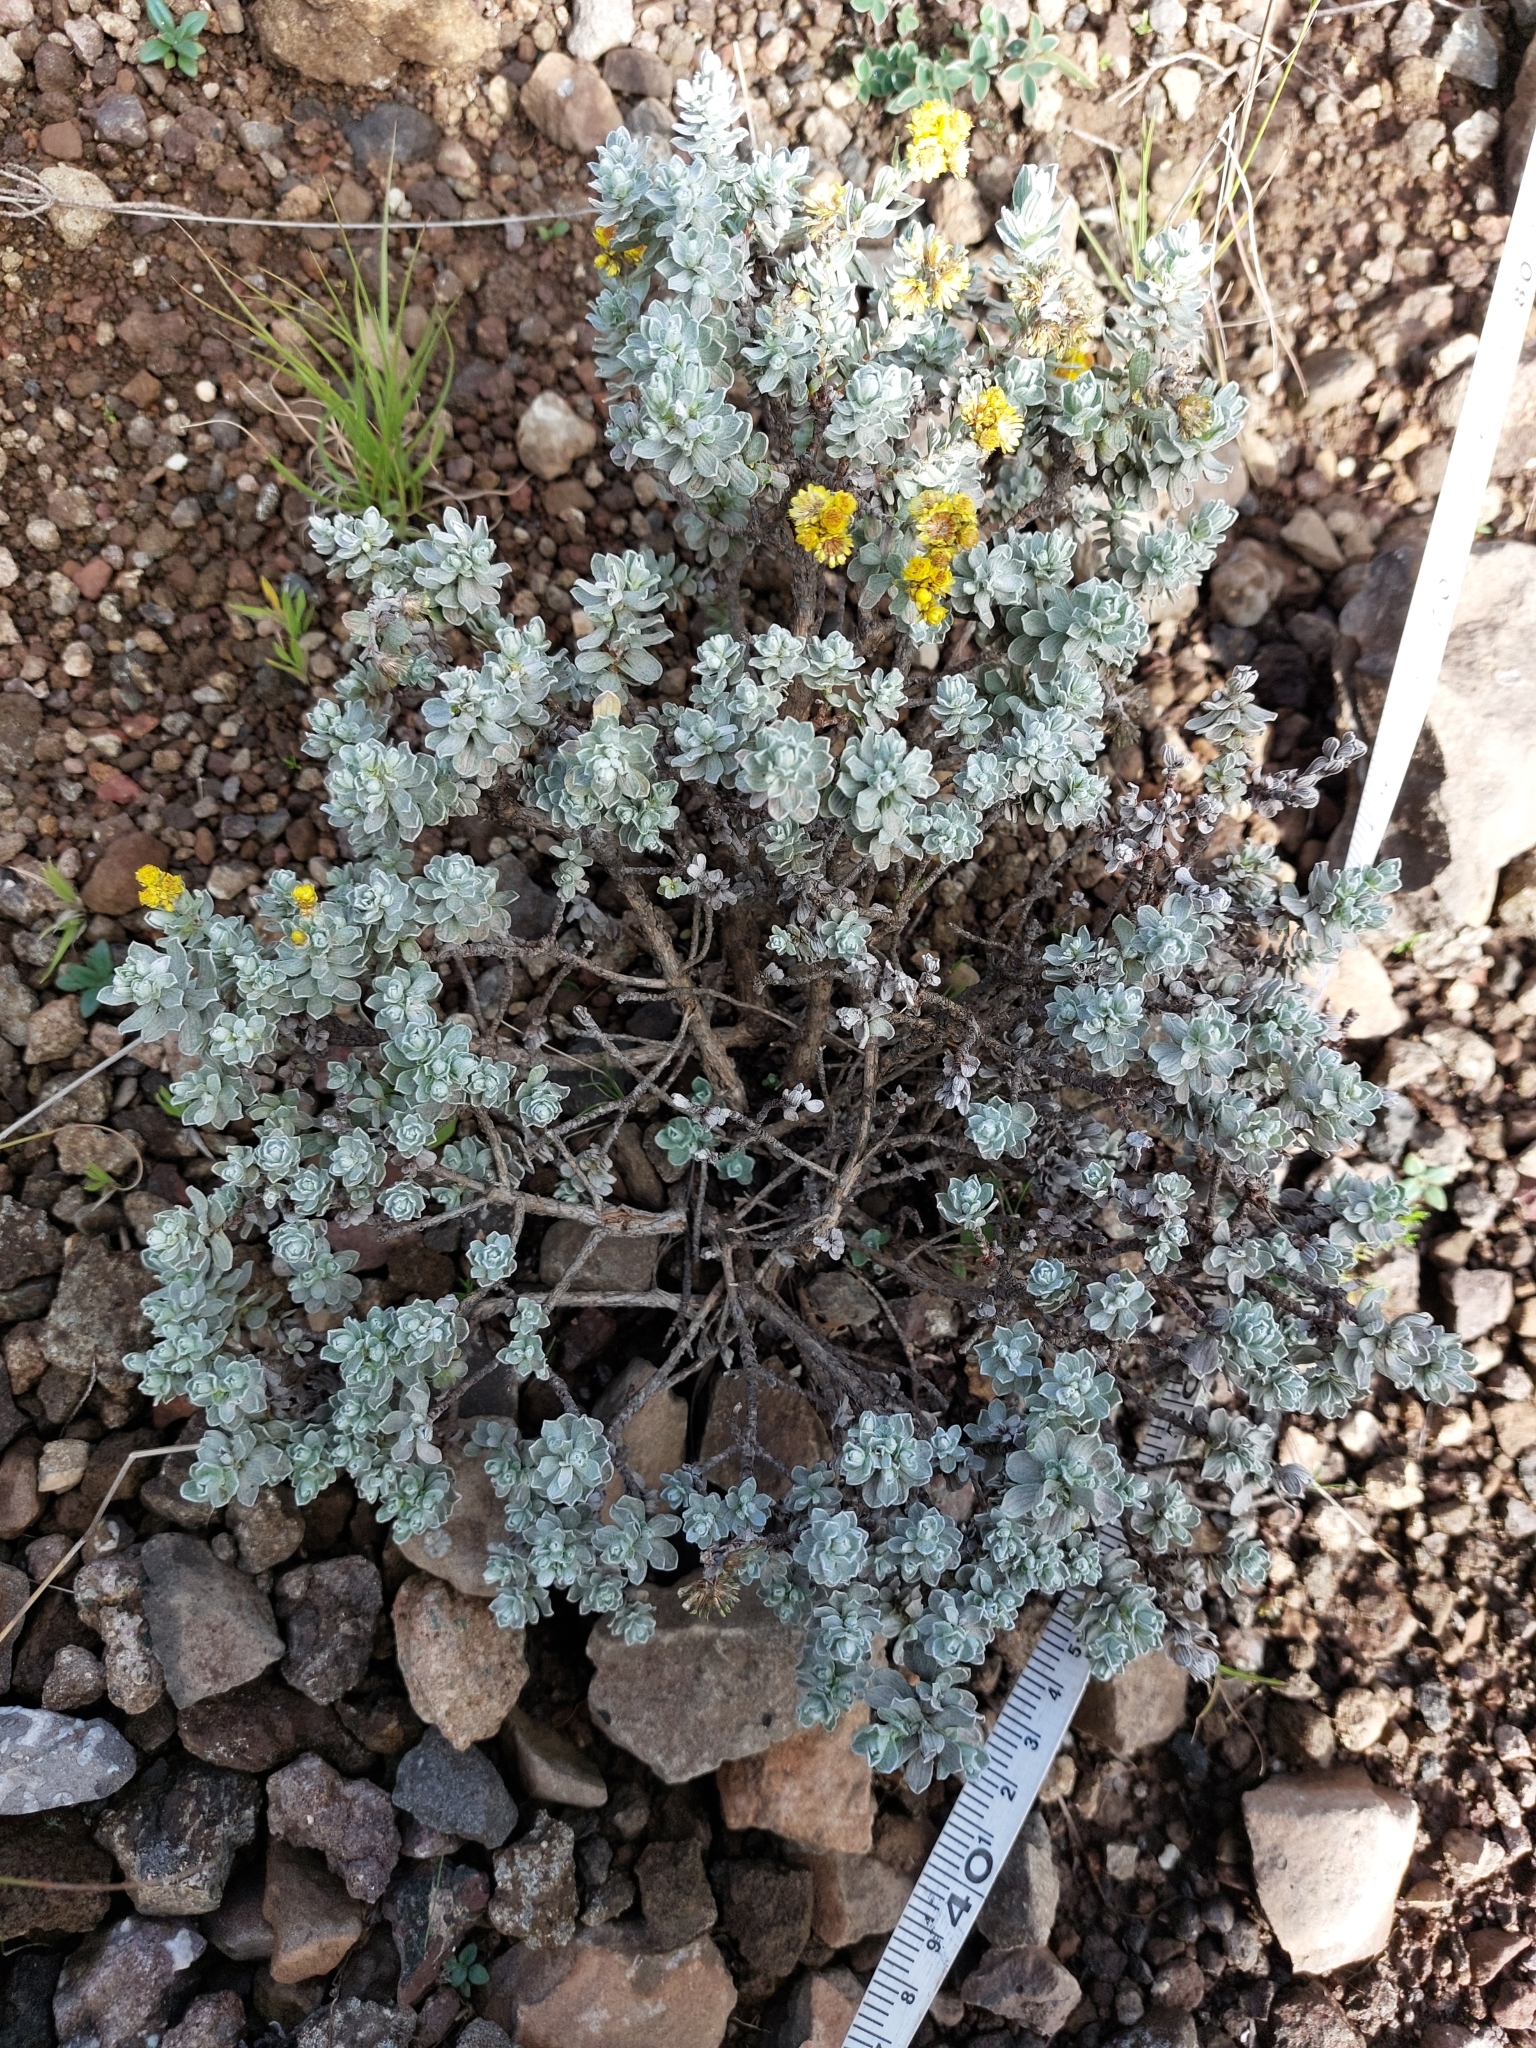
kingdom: Plantae
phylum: Tracheophyta
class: Magnoliopsida
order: Asterales
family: Asteraceae
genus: Helichrysum
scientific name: Helichrysum trilineatum
